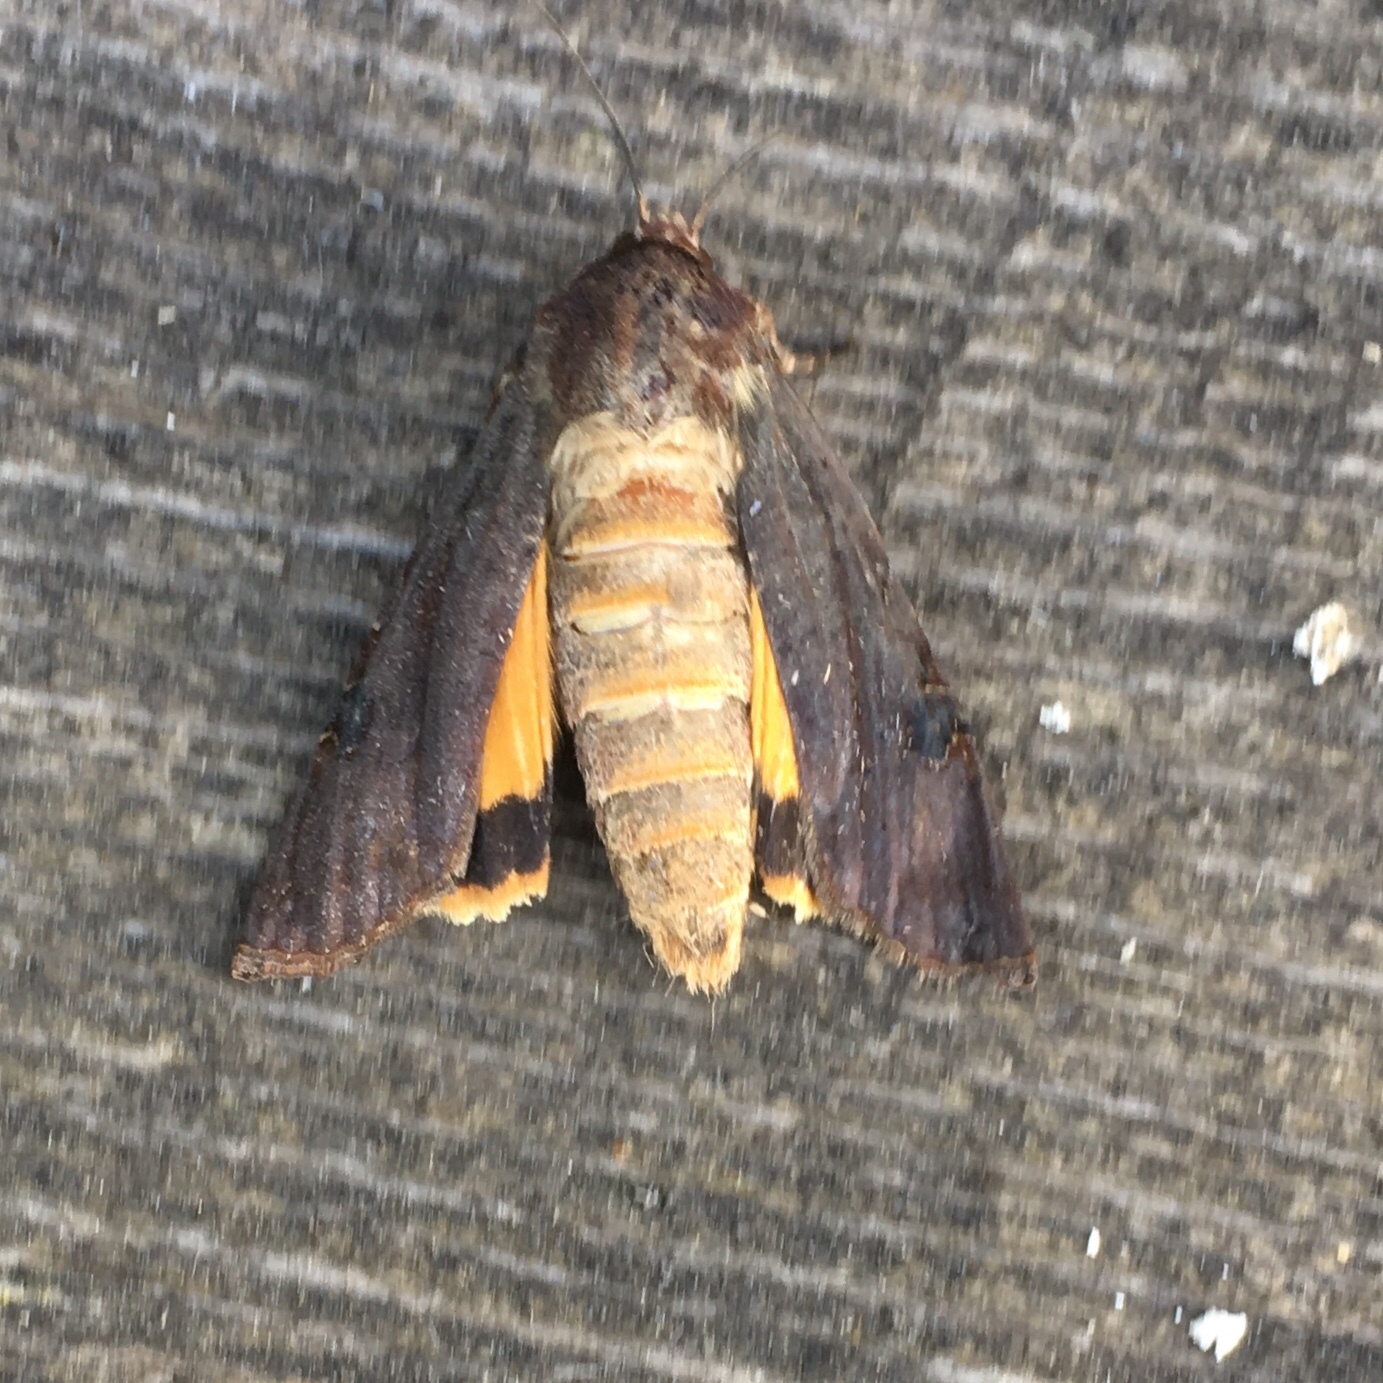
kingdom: Animalia
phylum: Arthropoda
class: Insecta
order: Lepidoptera
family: Noctuidae
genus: Noctua
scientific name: Noctua pronuba
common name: Large yellow underwing
